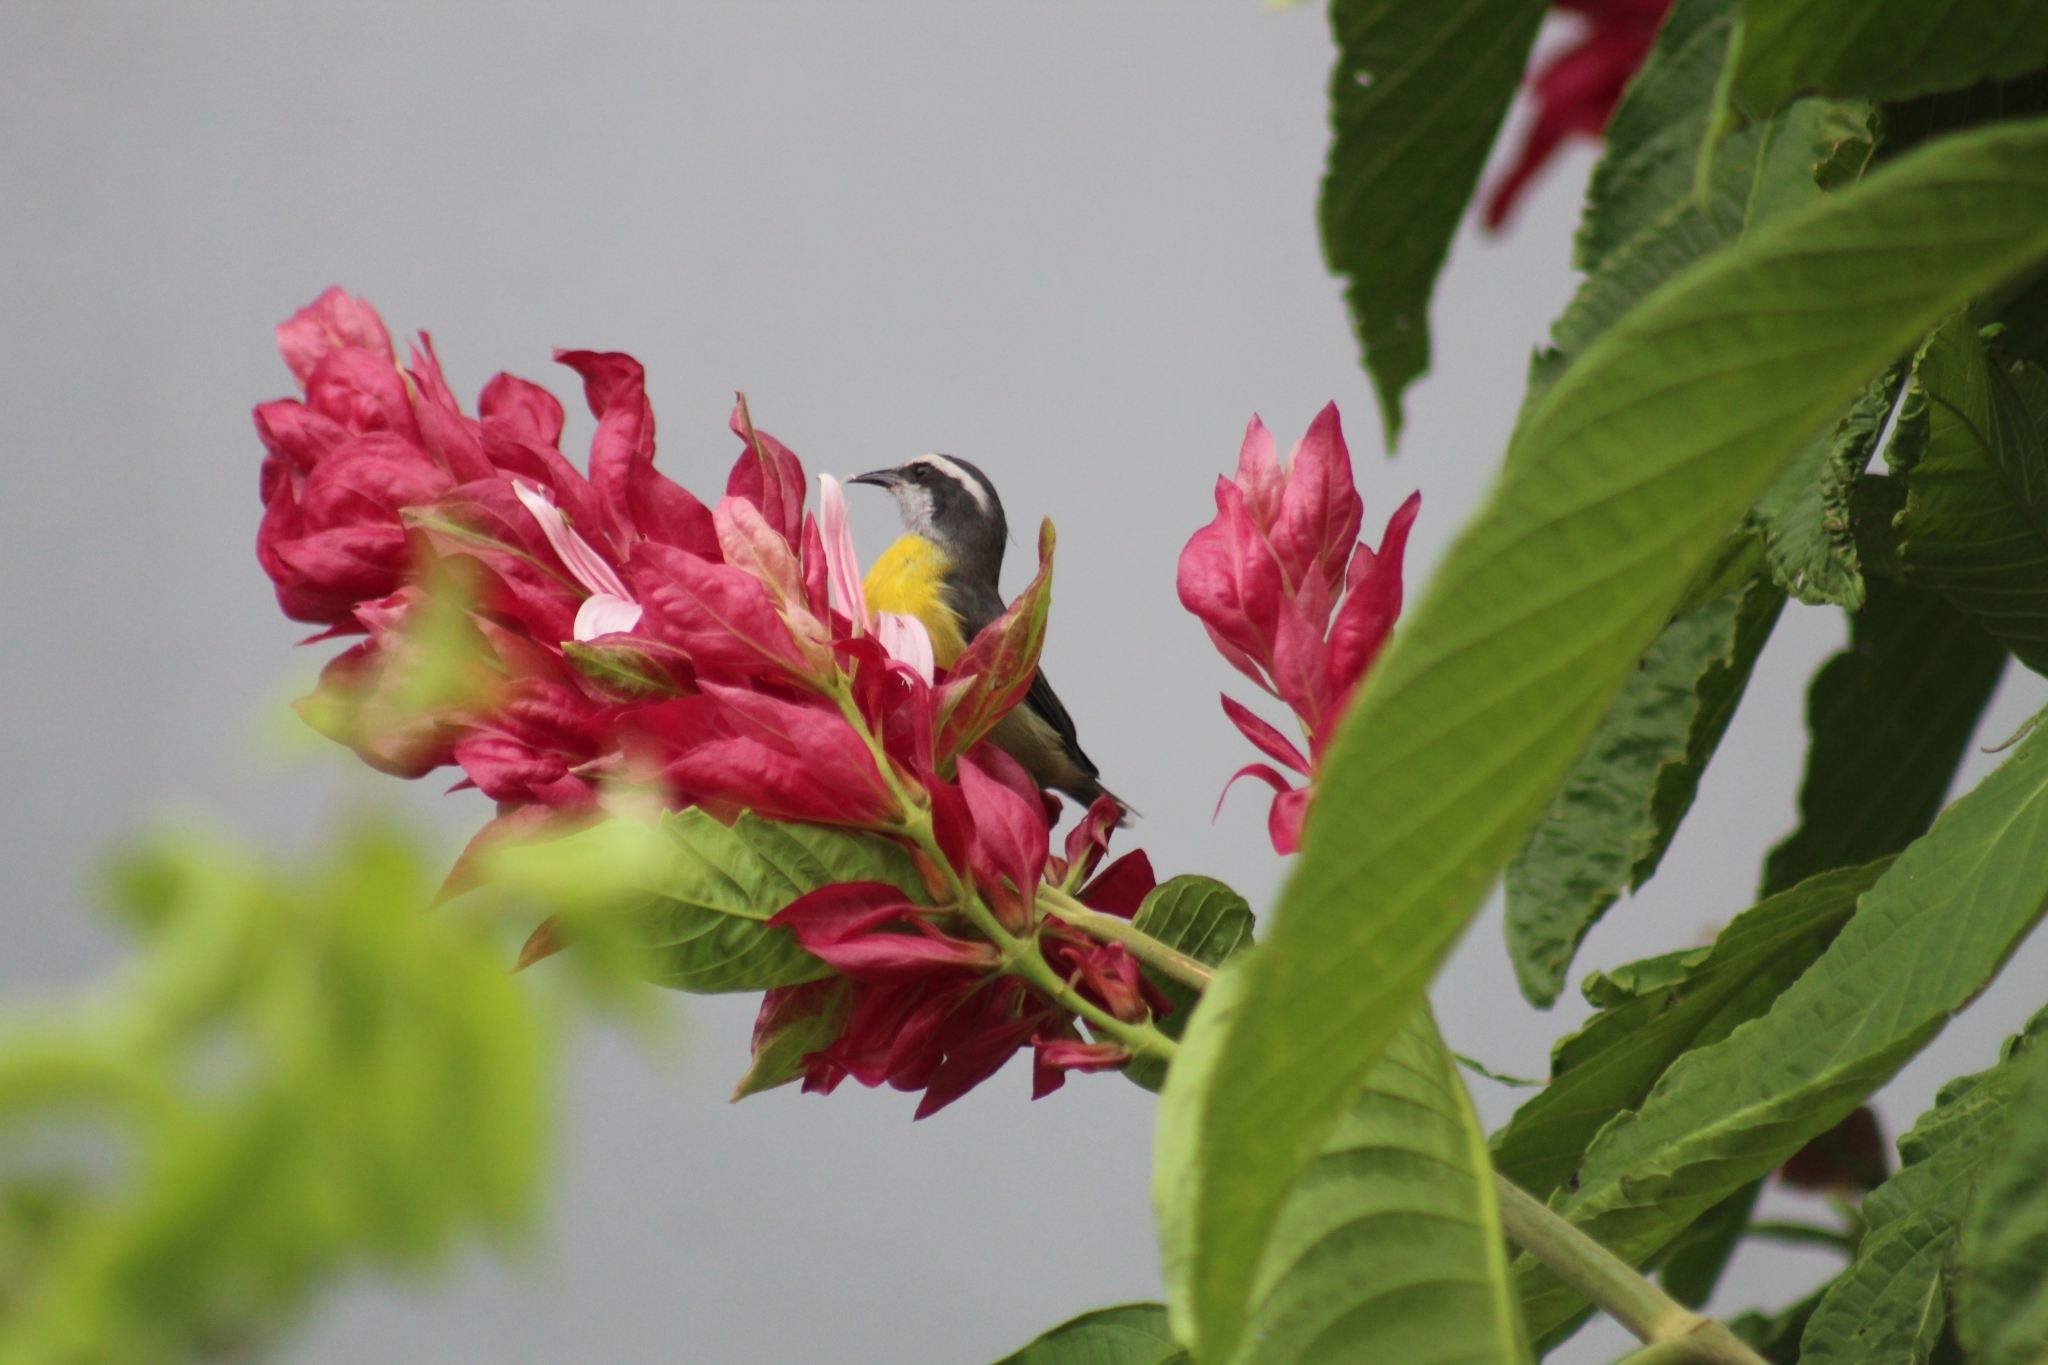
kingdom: Animalia
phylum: Chordata
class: Aves
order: Passeriformes
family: Thraupidae
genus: Coereba
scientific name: Coereba flaveola
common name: Bananaquit
